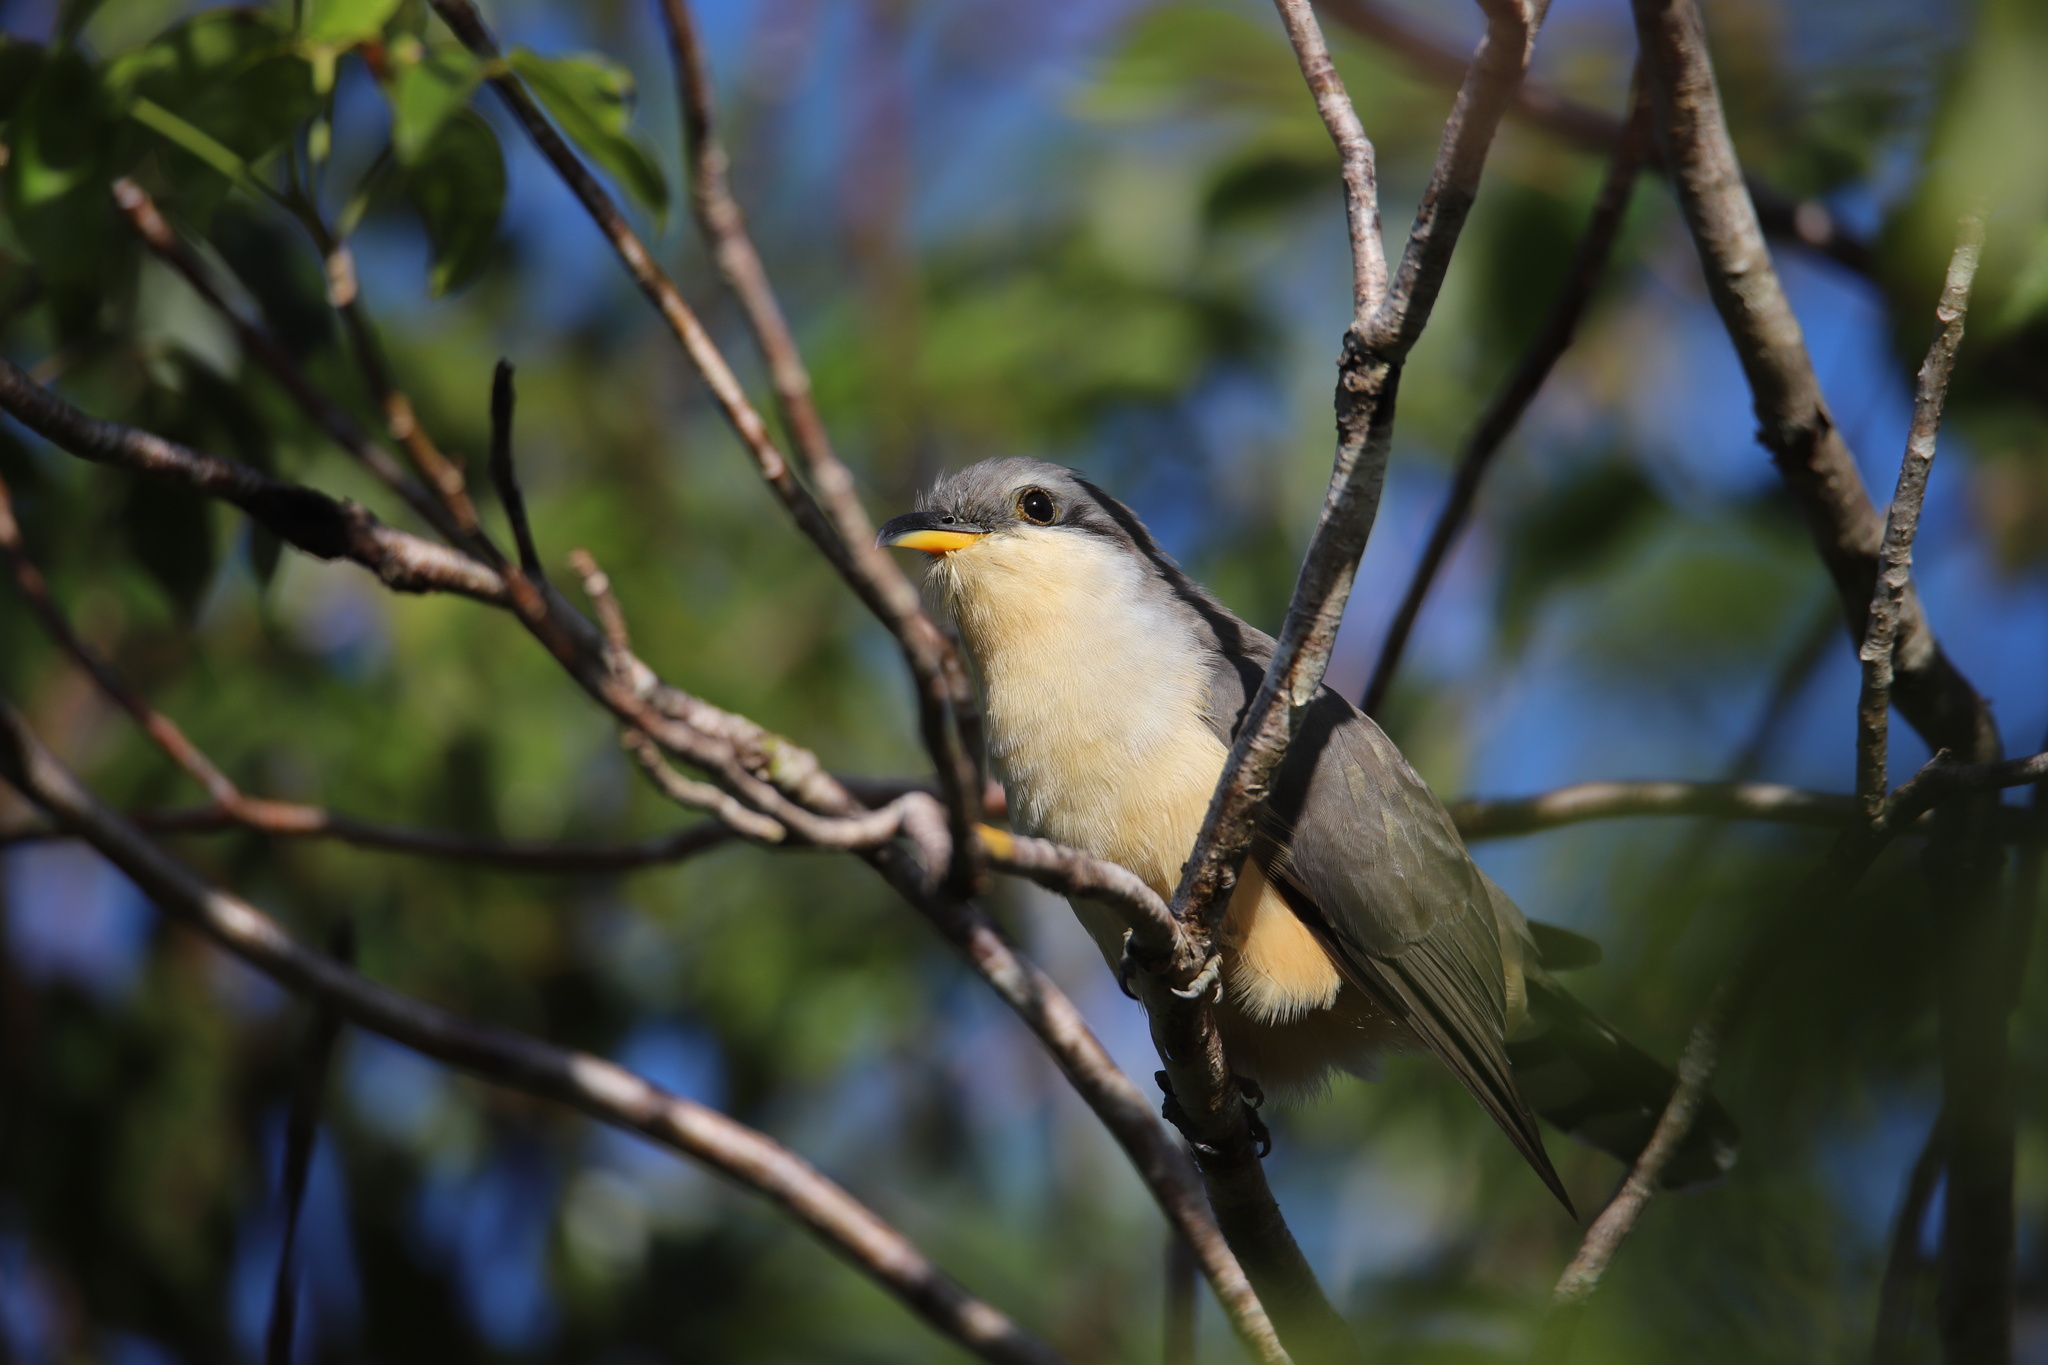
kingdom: Animalia
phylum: Chordata
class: Aves
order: Cuculiformes
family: Cuculidae
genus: Coccyzus
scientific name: Coccyzus minor
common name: Mangrove cuckoo
